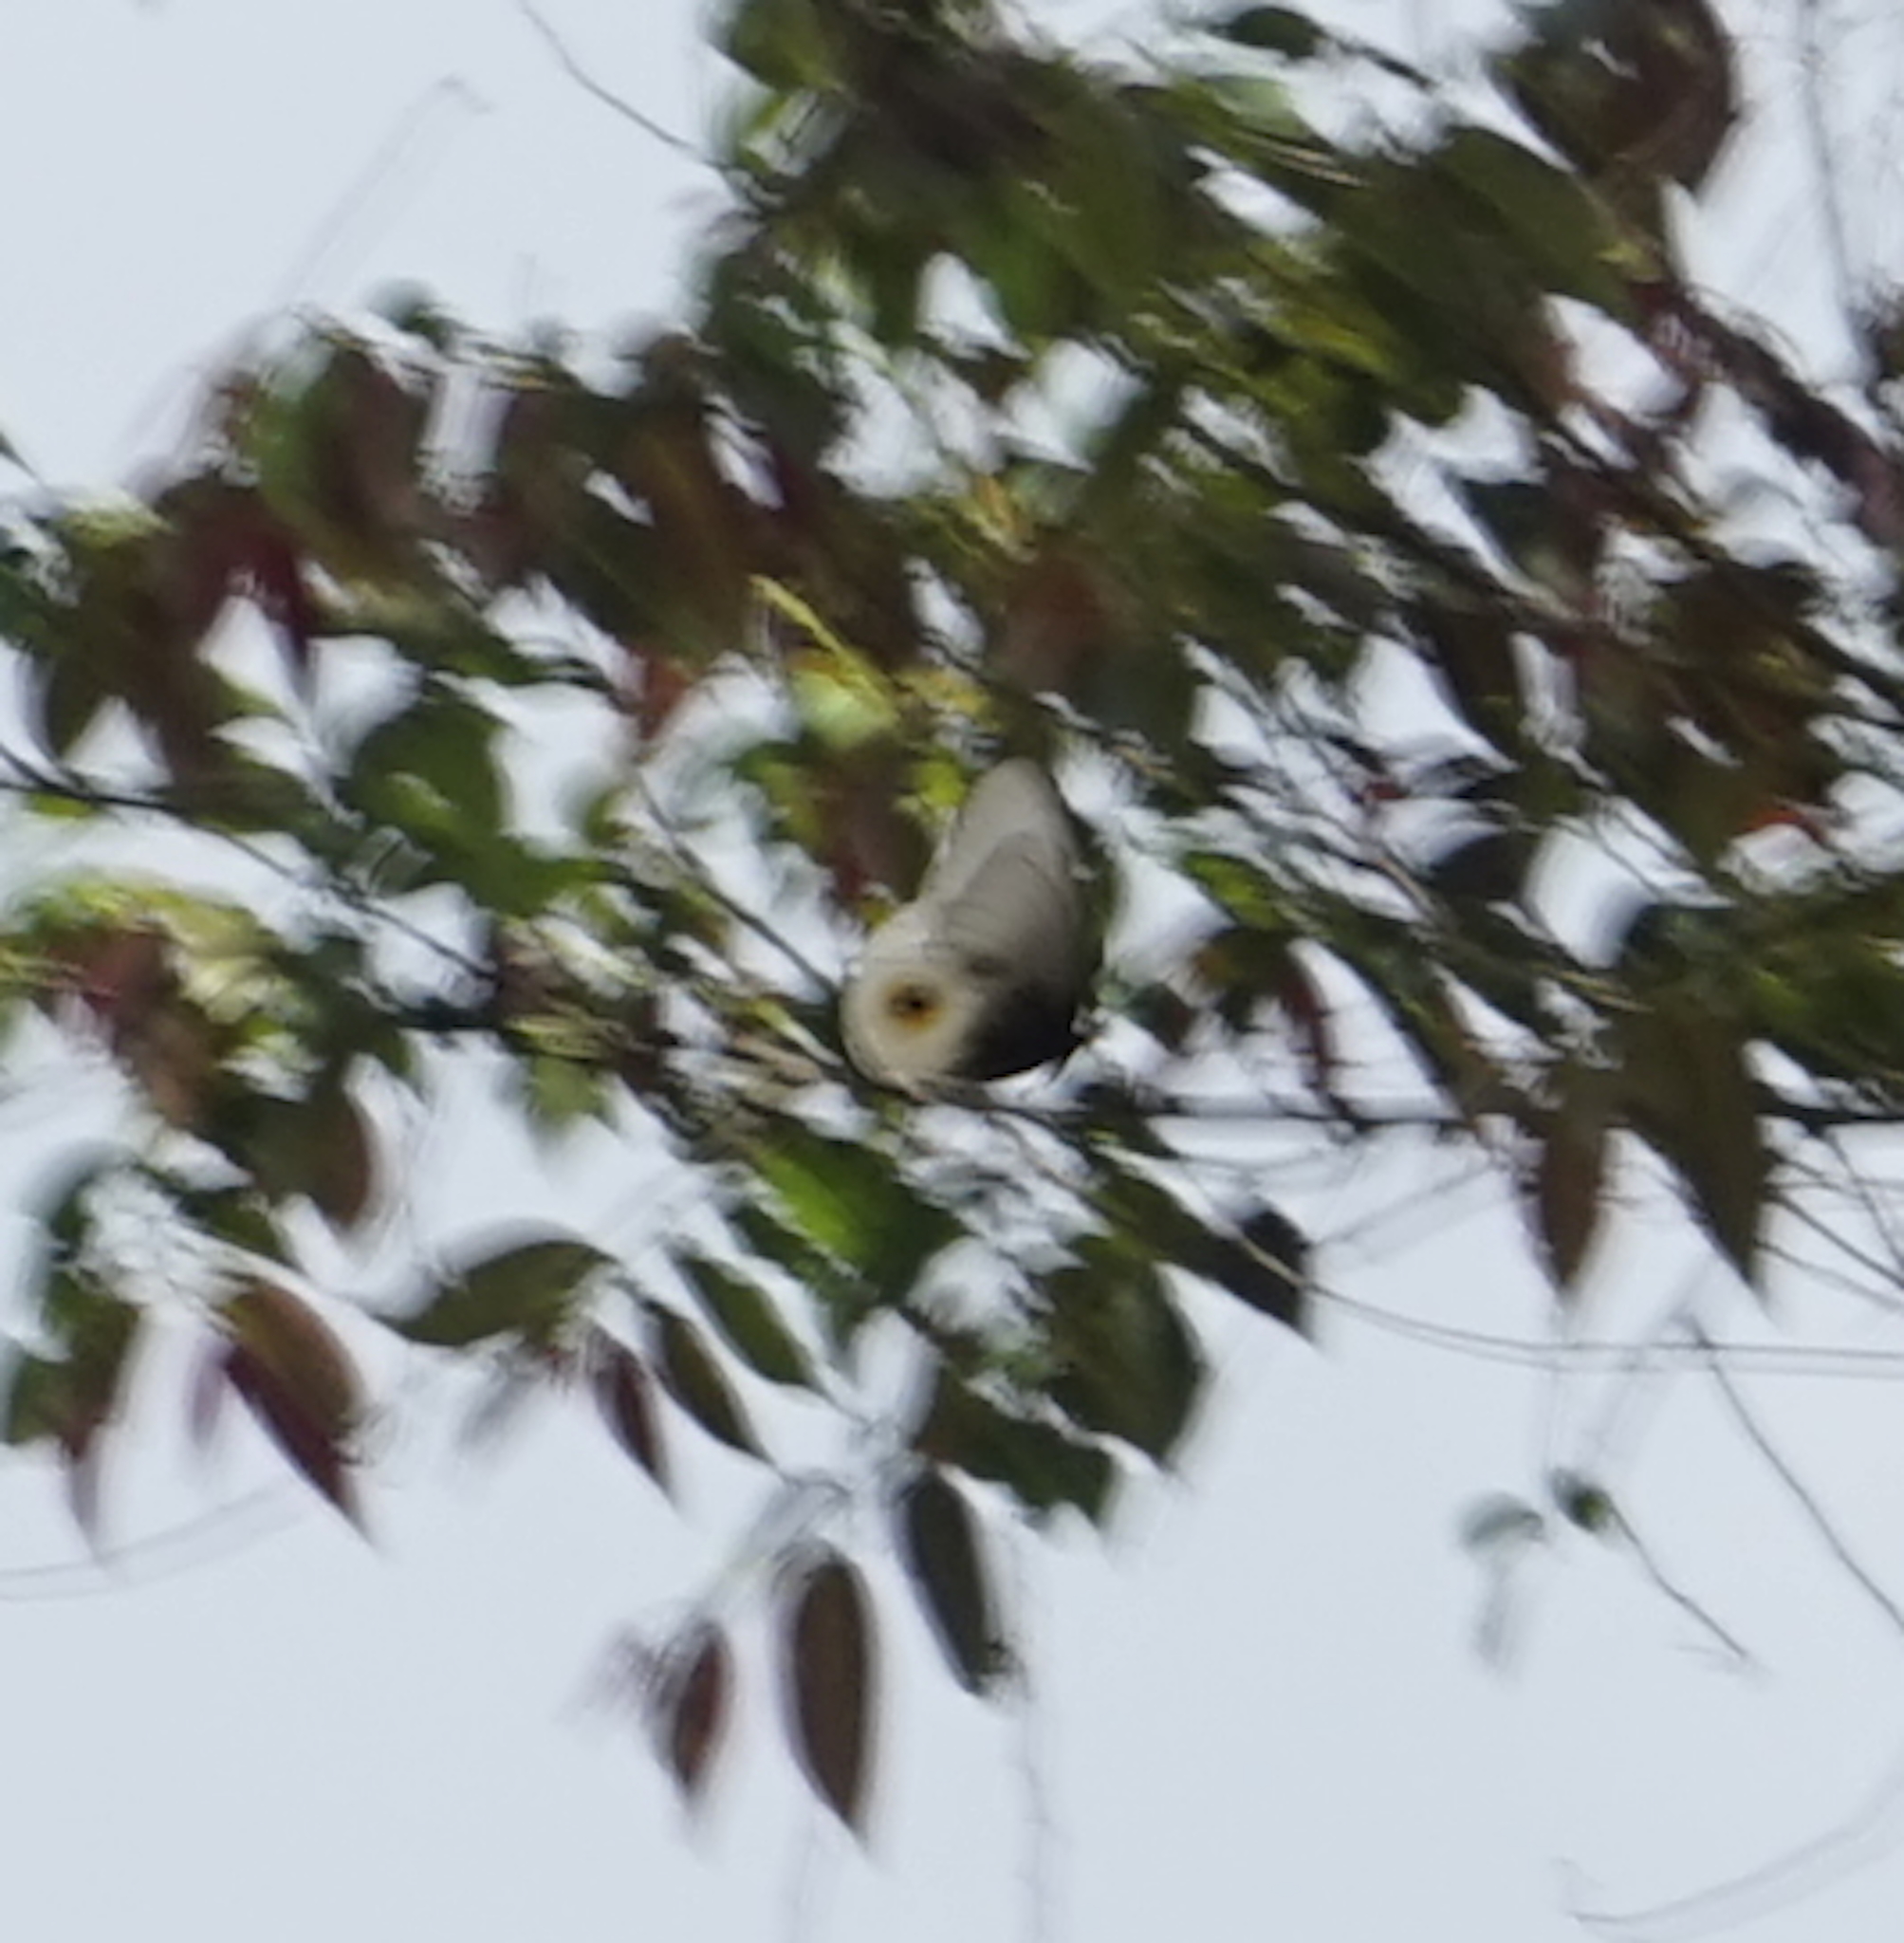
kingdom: Animalia
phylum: Arthropoda
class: Insecta
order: Lepidoptera
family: Nymphalidae
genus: Taenaris
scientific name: Taenaris horsfieldii
